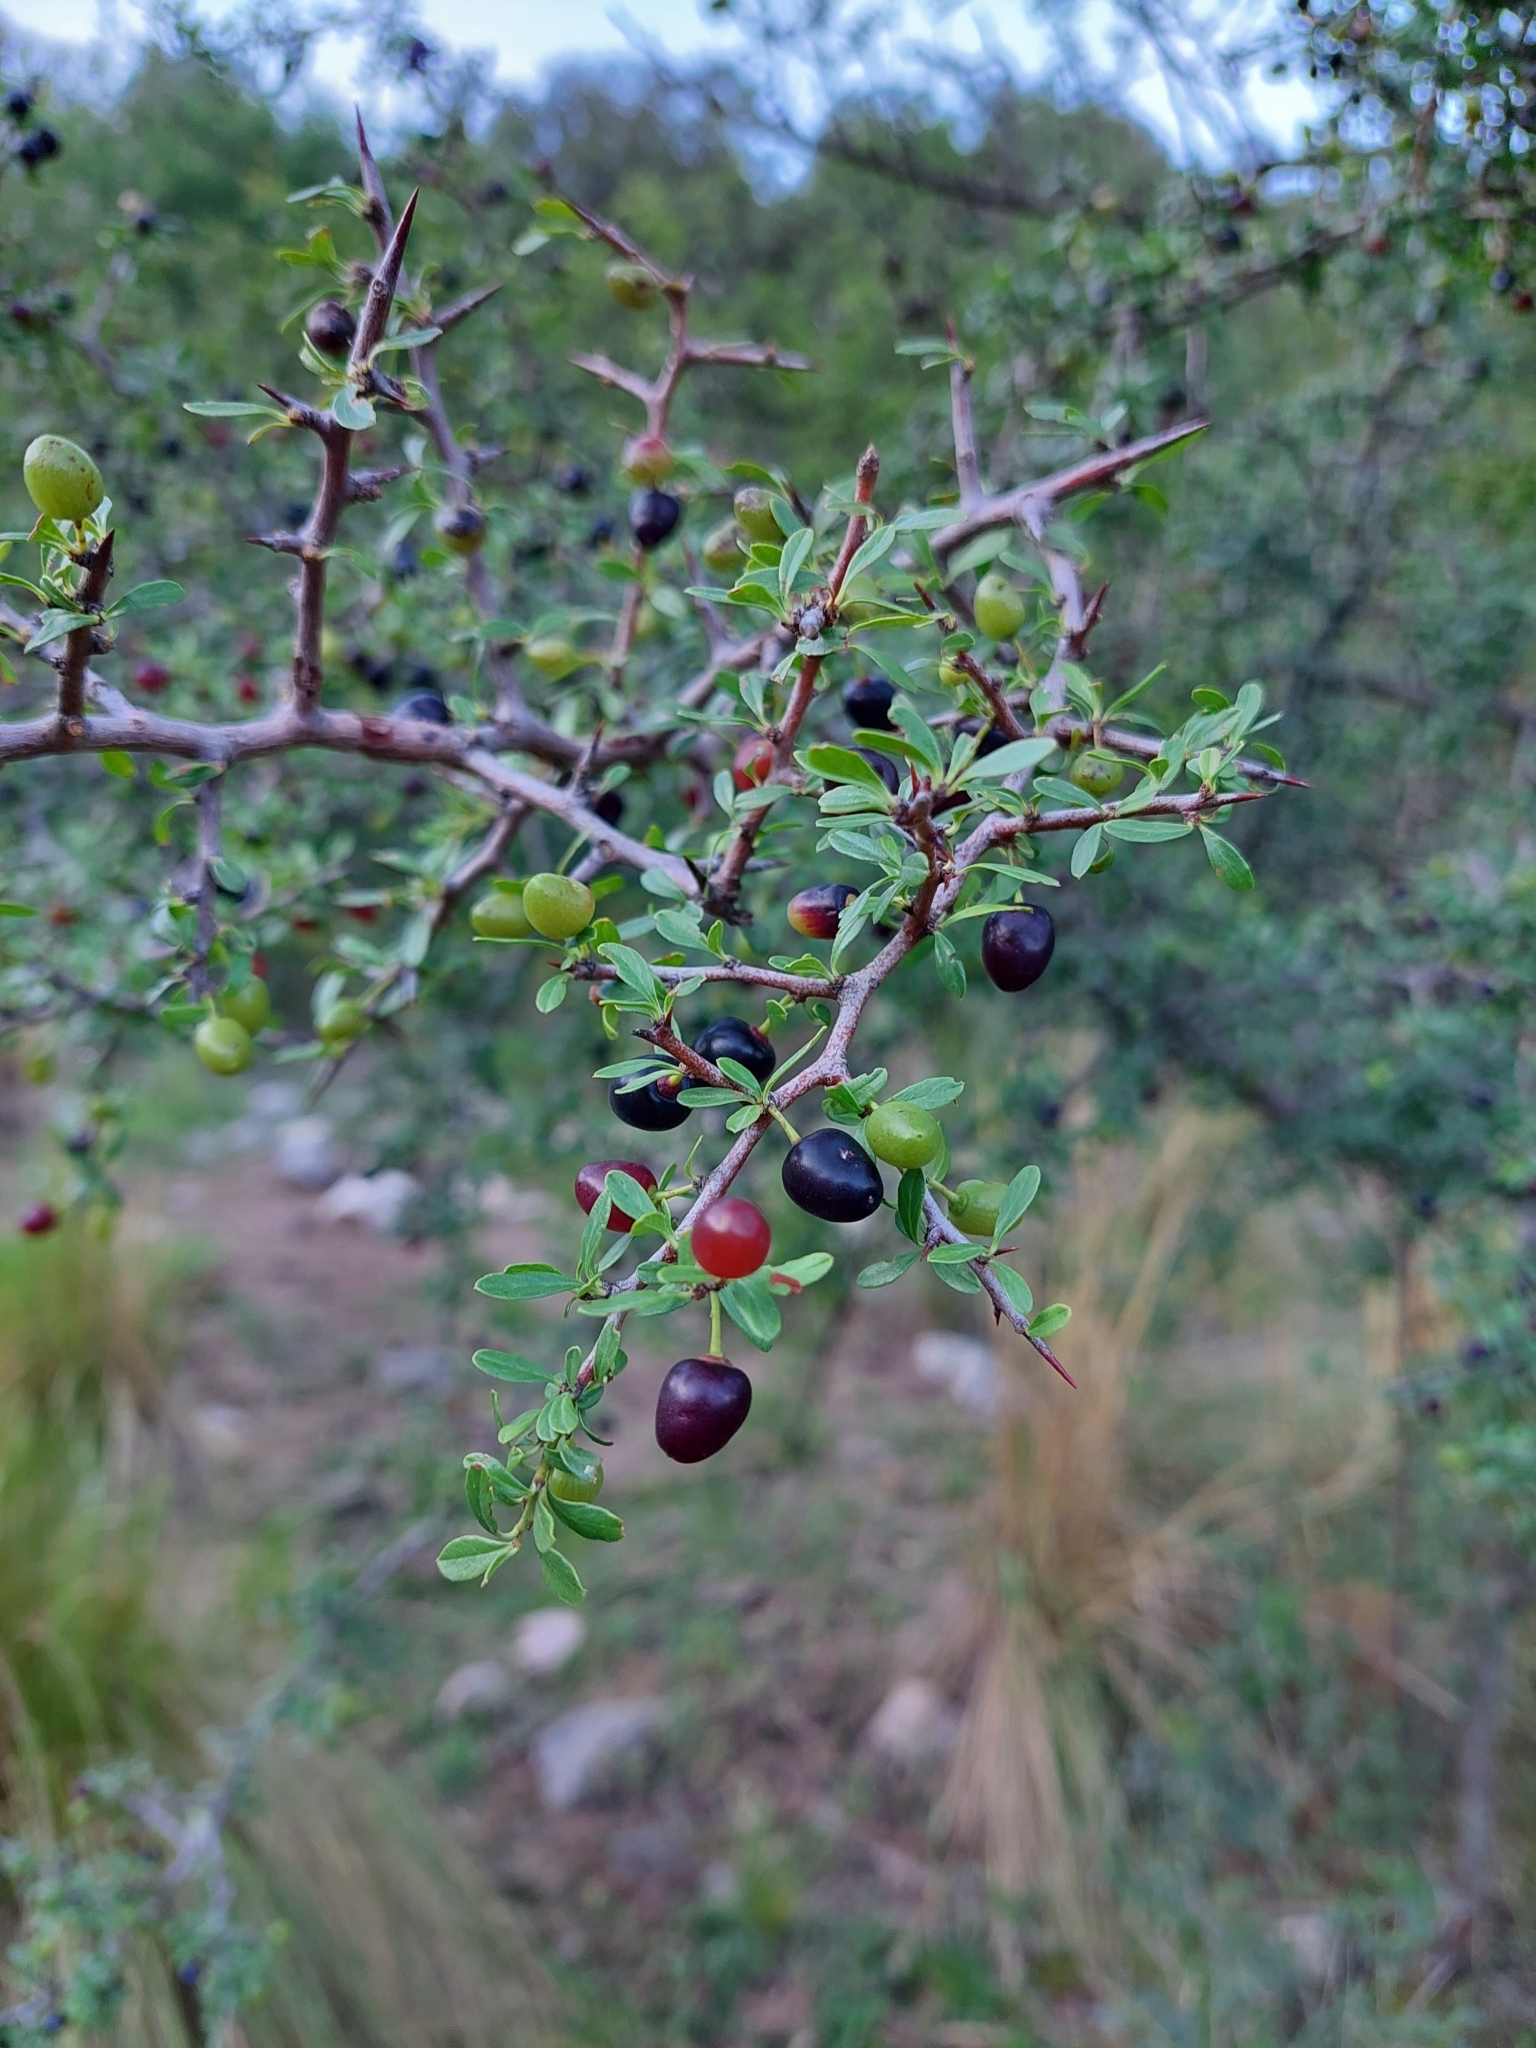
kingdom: Plantae
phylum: Tracheophyta
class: Magnoliopsida
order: Rosales
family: Rhamnaceae
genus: Condalia
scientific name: Condalia microphylla
